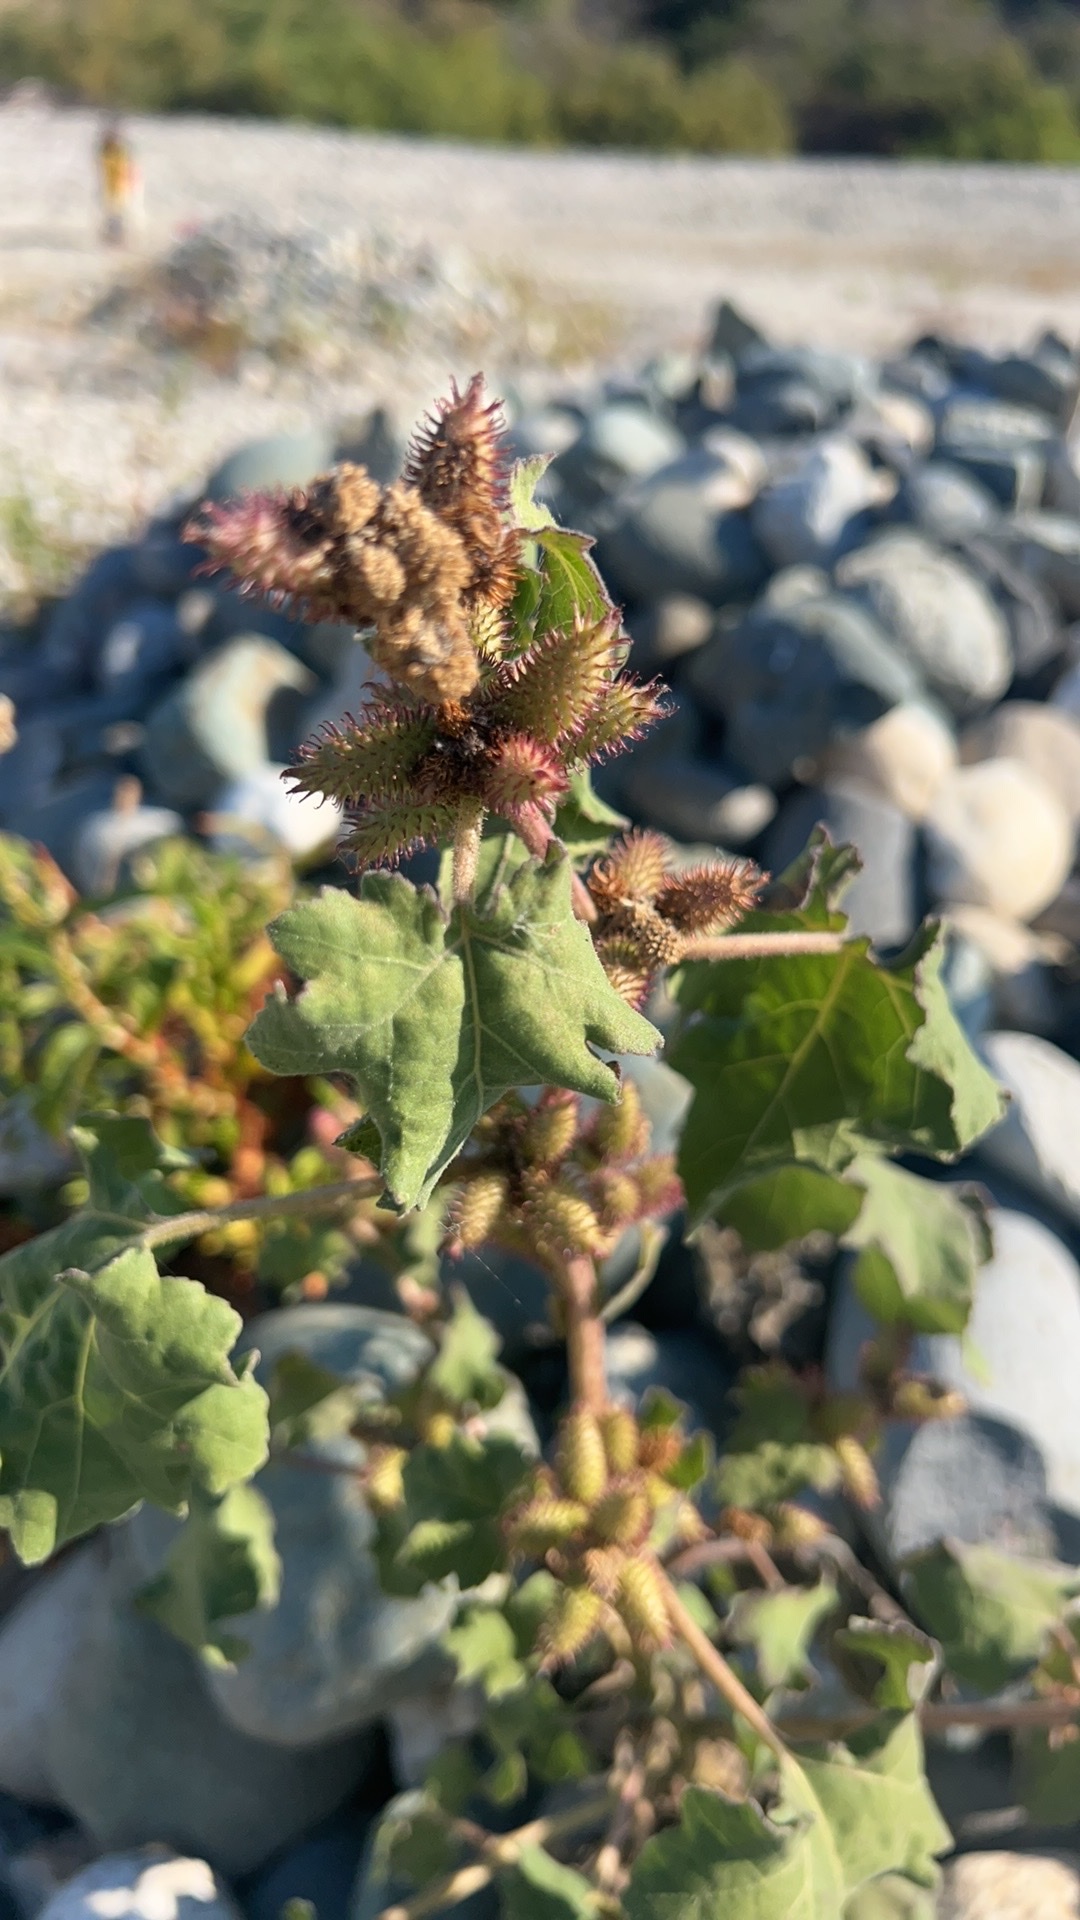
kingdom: Plantae
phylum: Tracheophyta
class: Magnoliopsida
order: Asterales
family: Asteraceae
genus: Xanthium
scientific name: Xanthium strumarium
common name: Rough cocklebur
